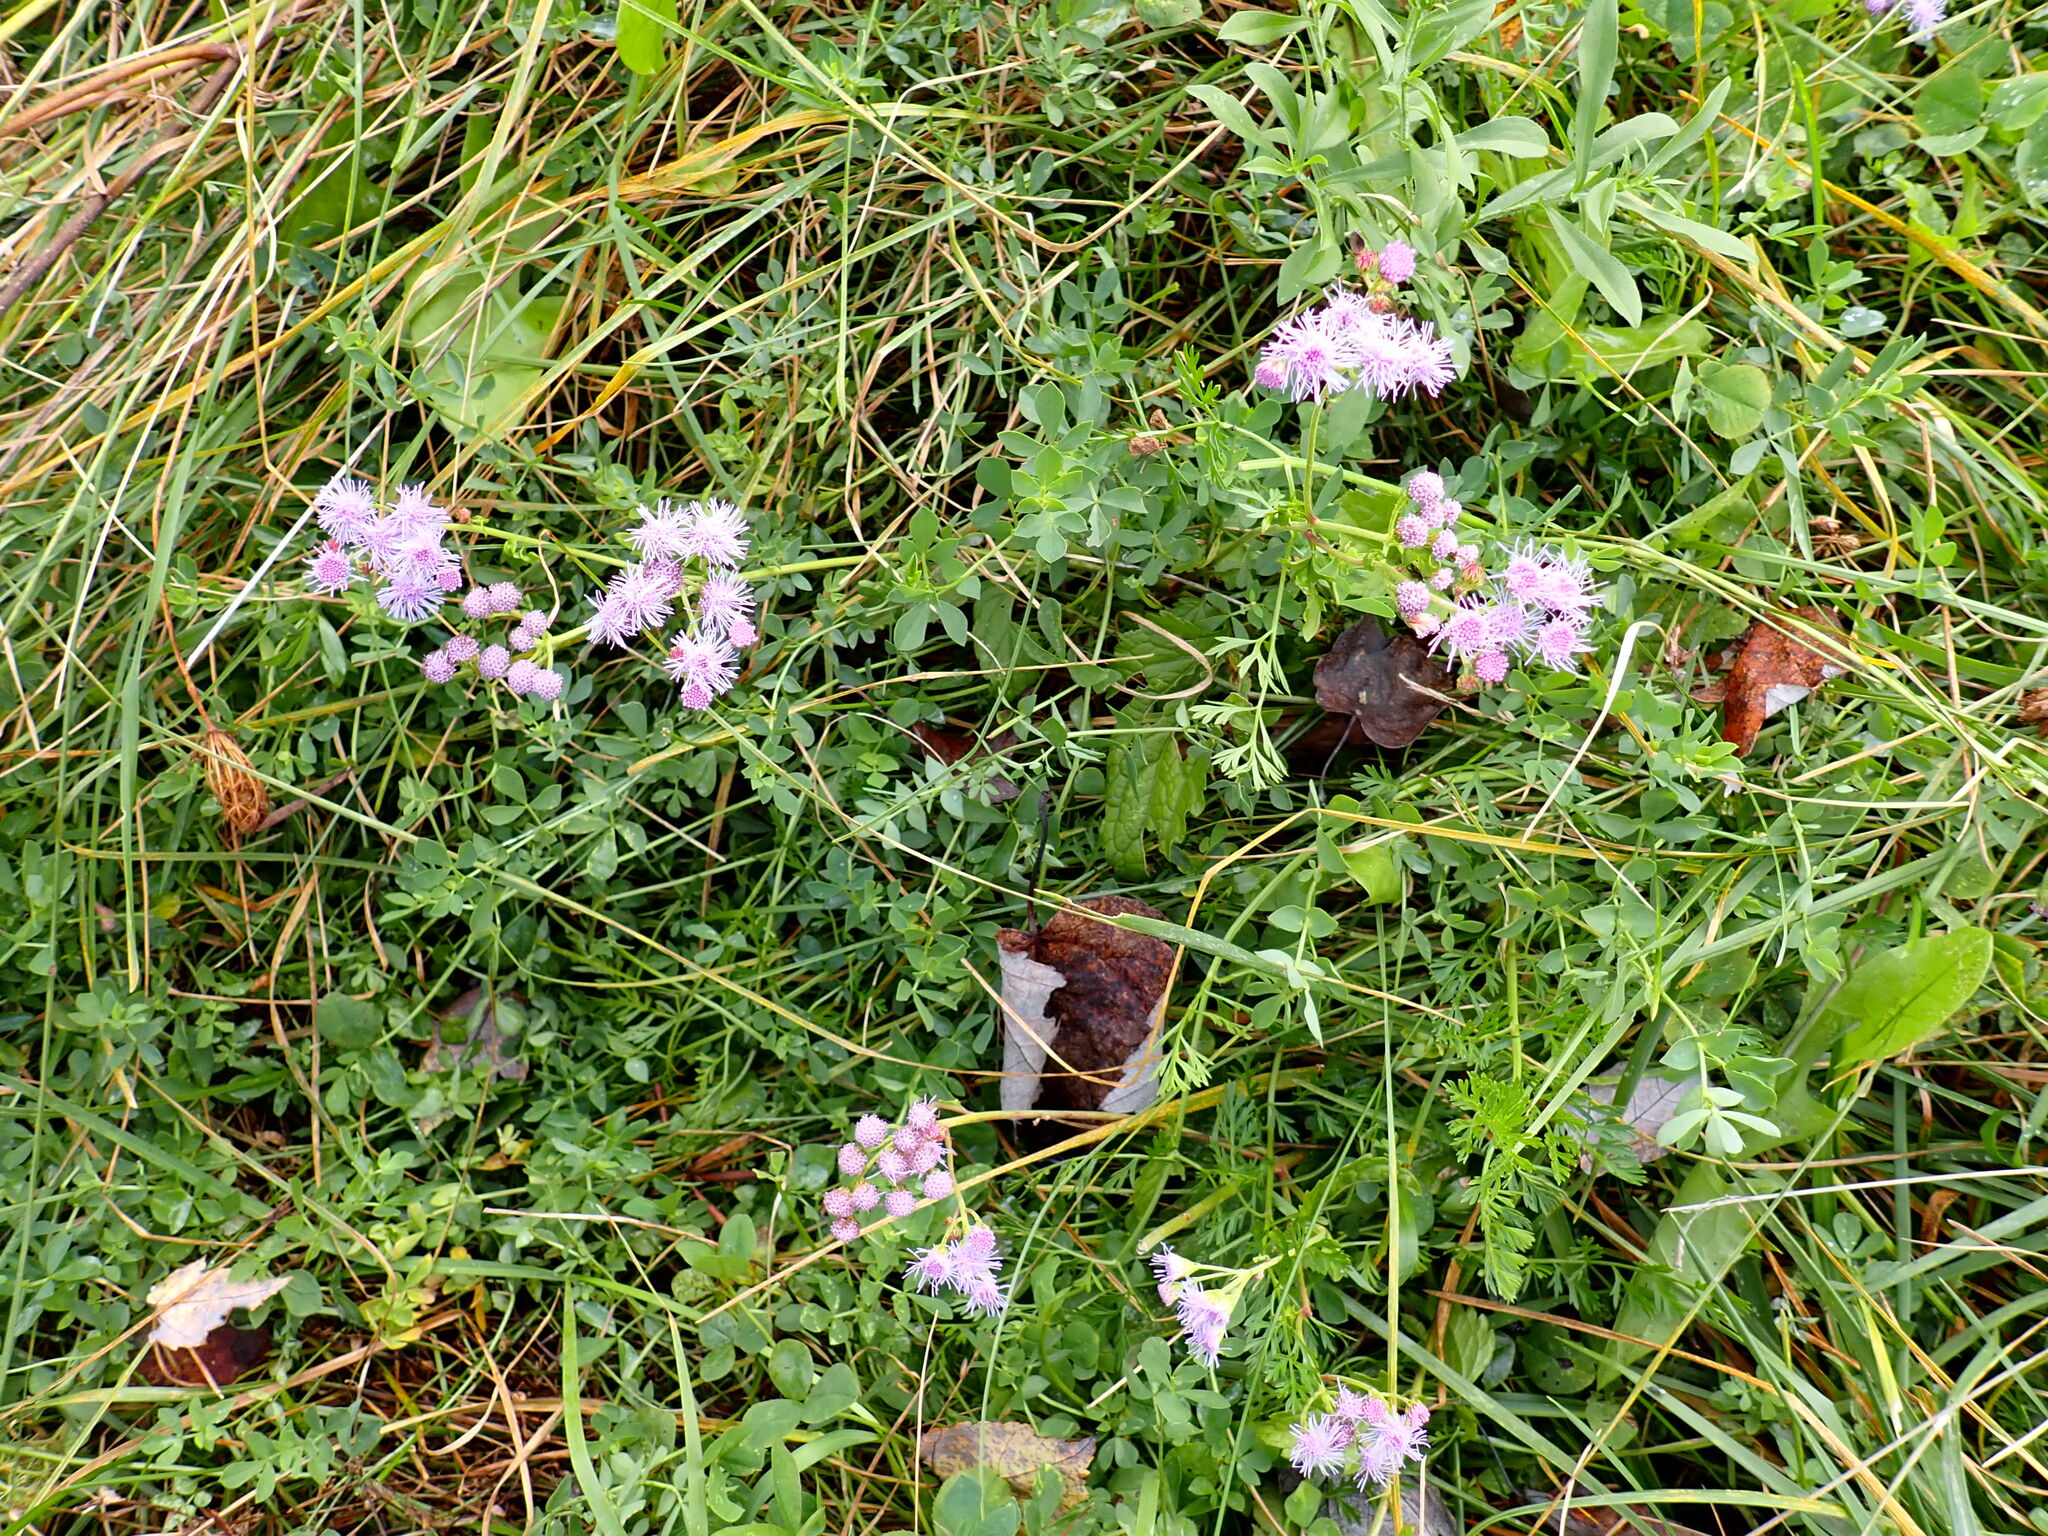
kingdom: Plantae
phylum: Tracheophyta
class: Magnoliopsida
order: Asterales
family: Asteraceae
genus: Conoclinium
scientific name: Conoclinium coelestinum
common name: Blue mistflower
